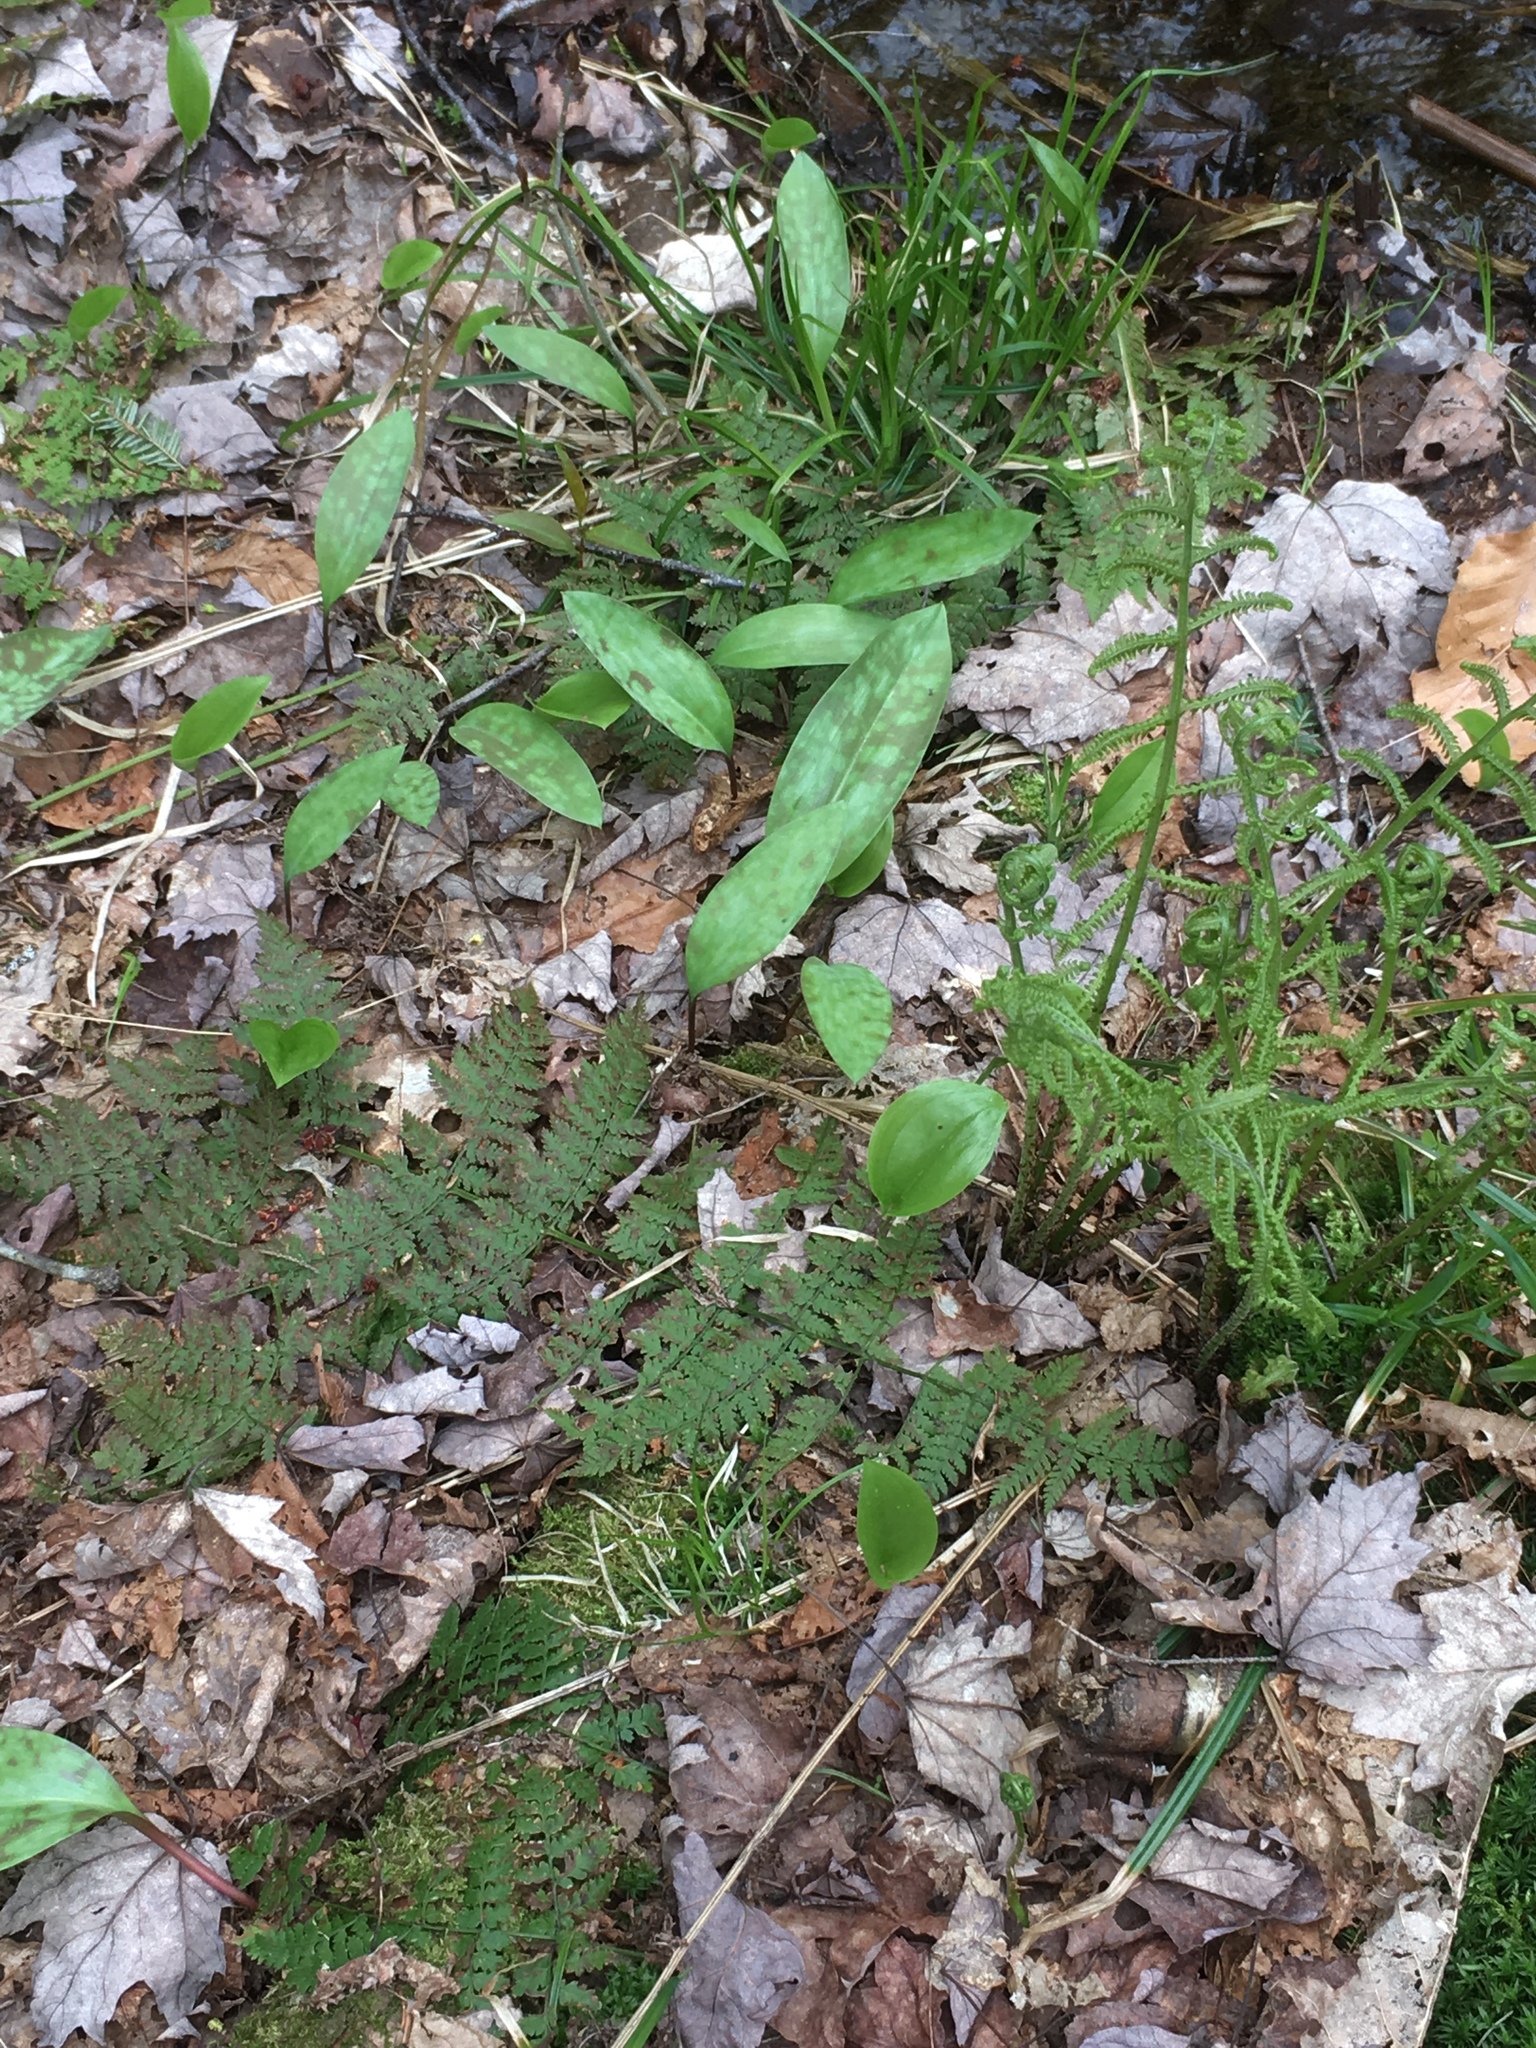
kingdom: Plantae
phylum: Tracheophyta
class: Liliopsida
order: Liliales
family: Liliaceae
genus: Erythronium
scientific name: Erythronium americanum
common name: Yellow adder's-tongue
